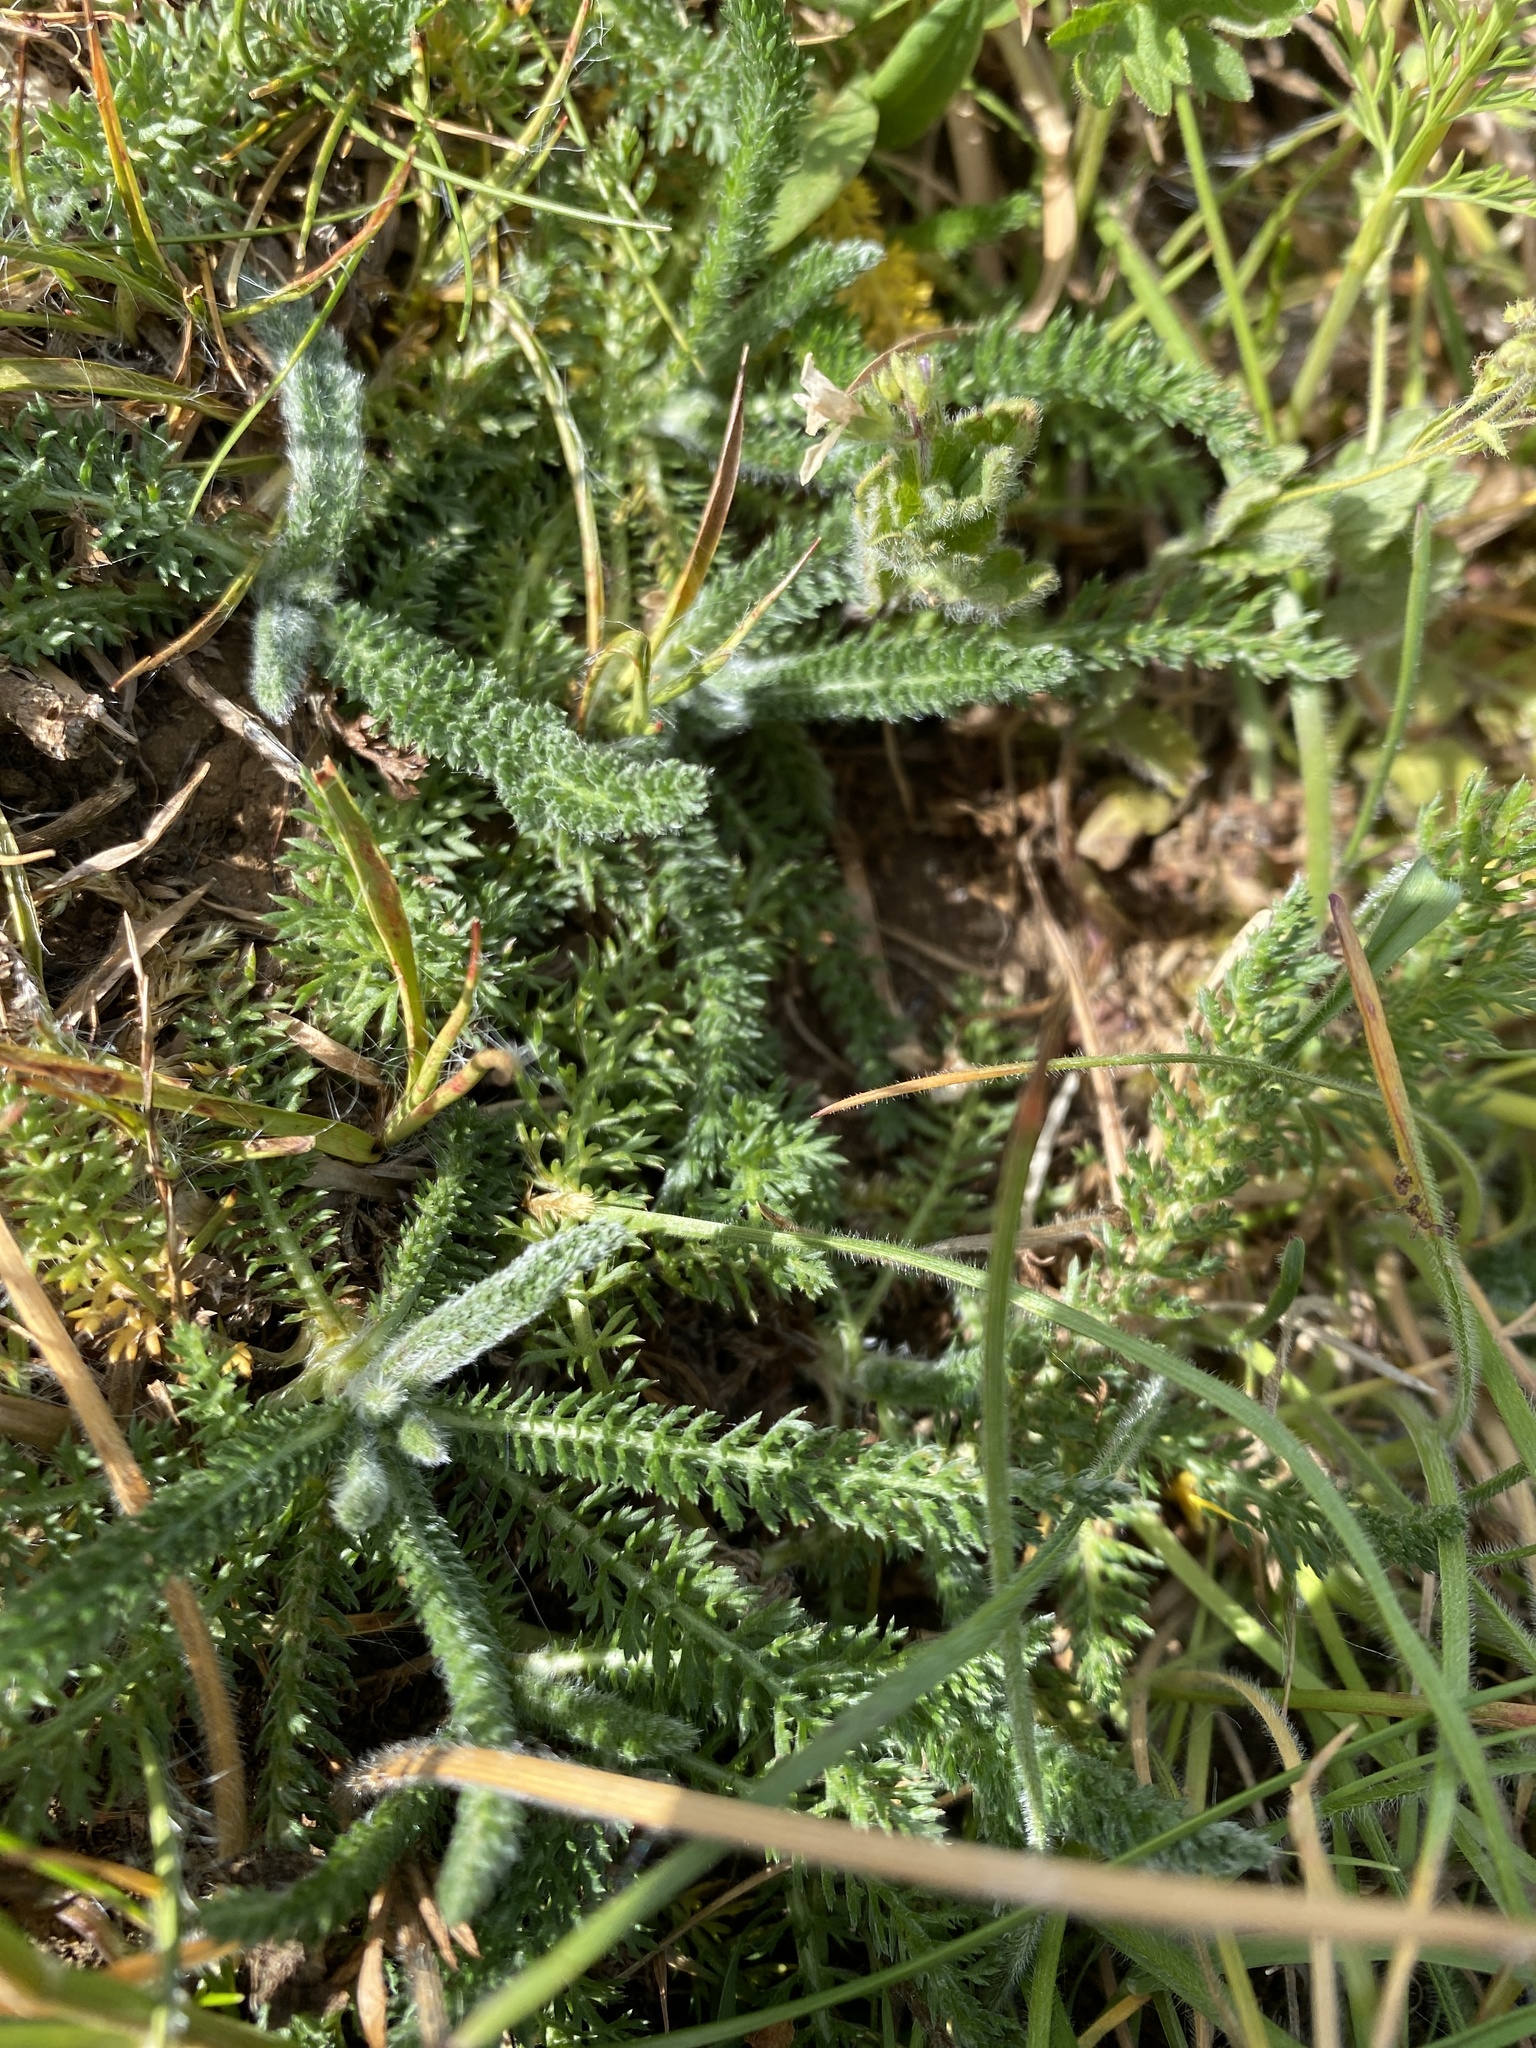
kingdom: Plantae
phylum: Tracheophyta
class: Magnoliopsida
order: Apiales
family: Apiaceae
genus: Conopodium
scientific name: Conopodium majus
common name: Pignut
